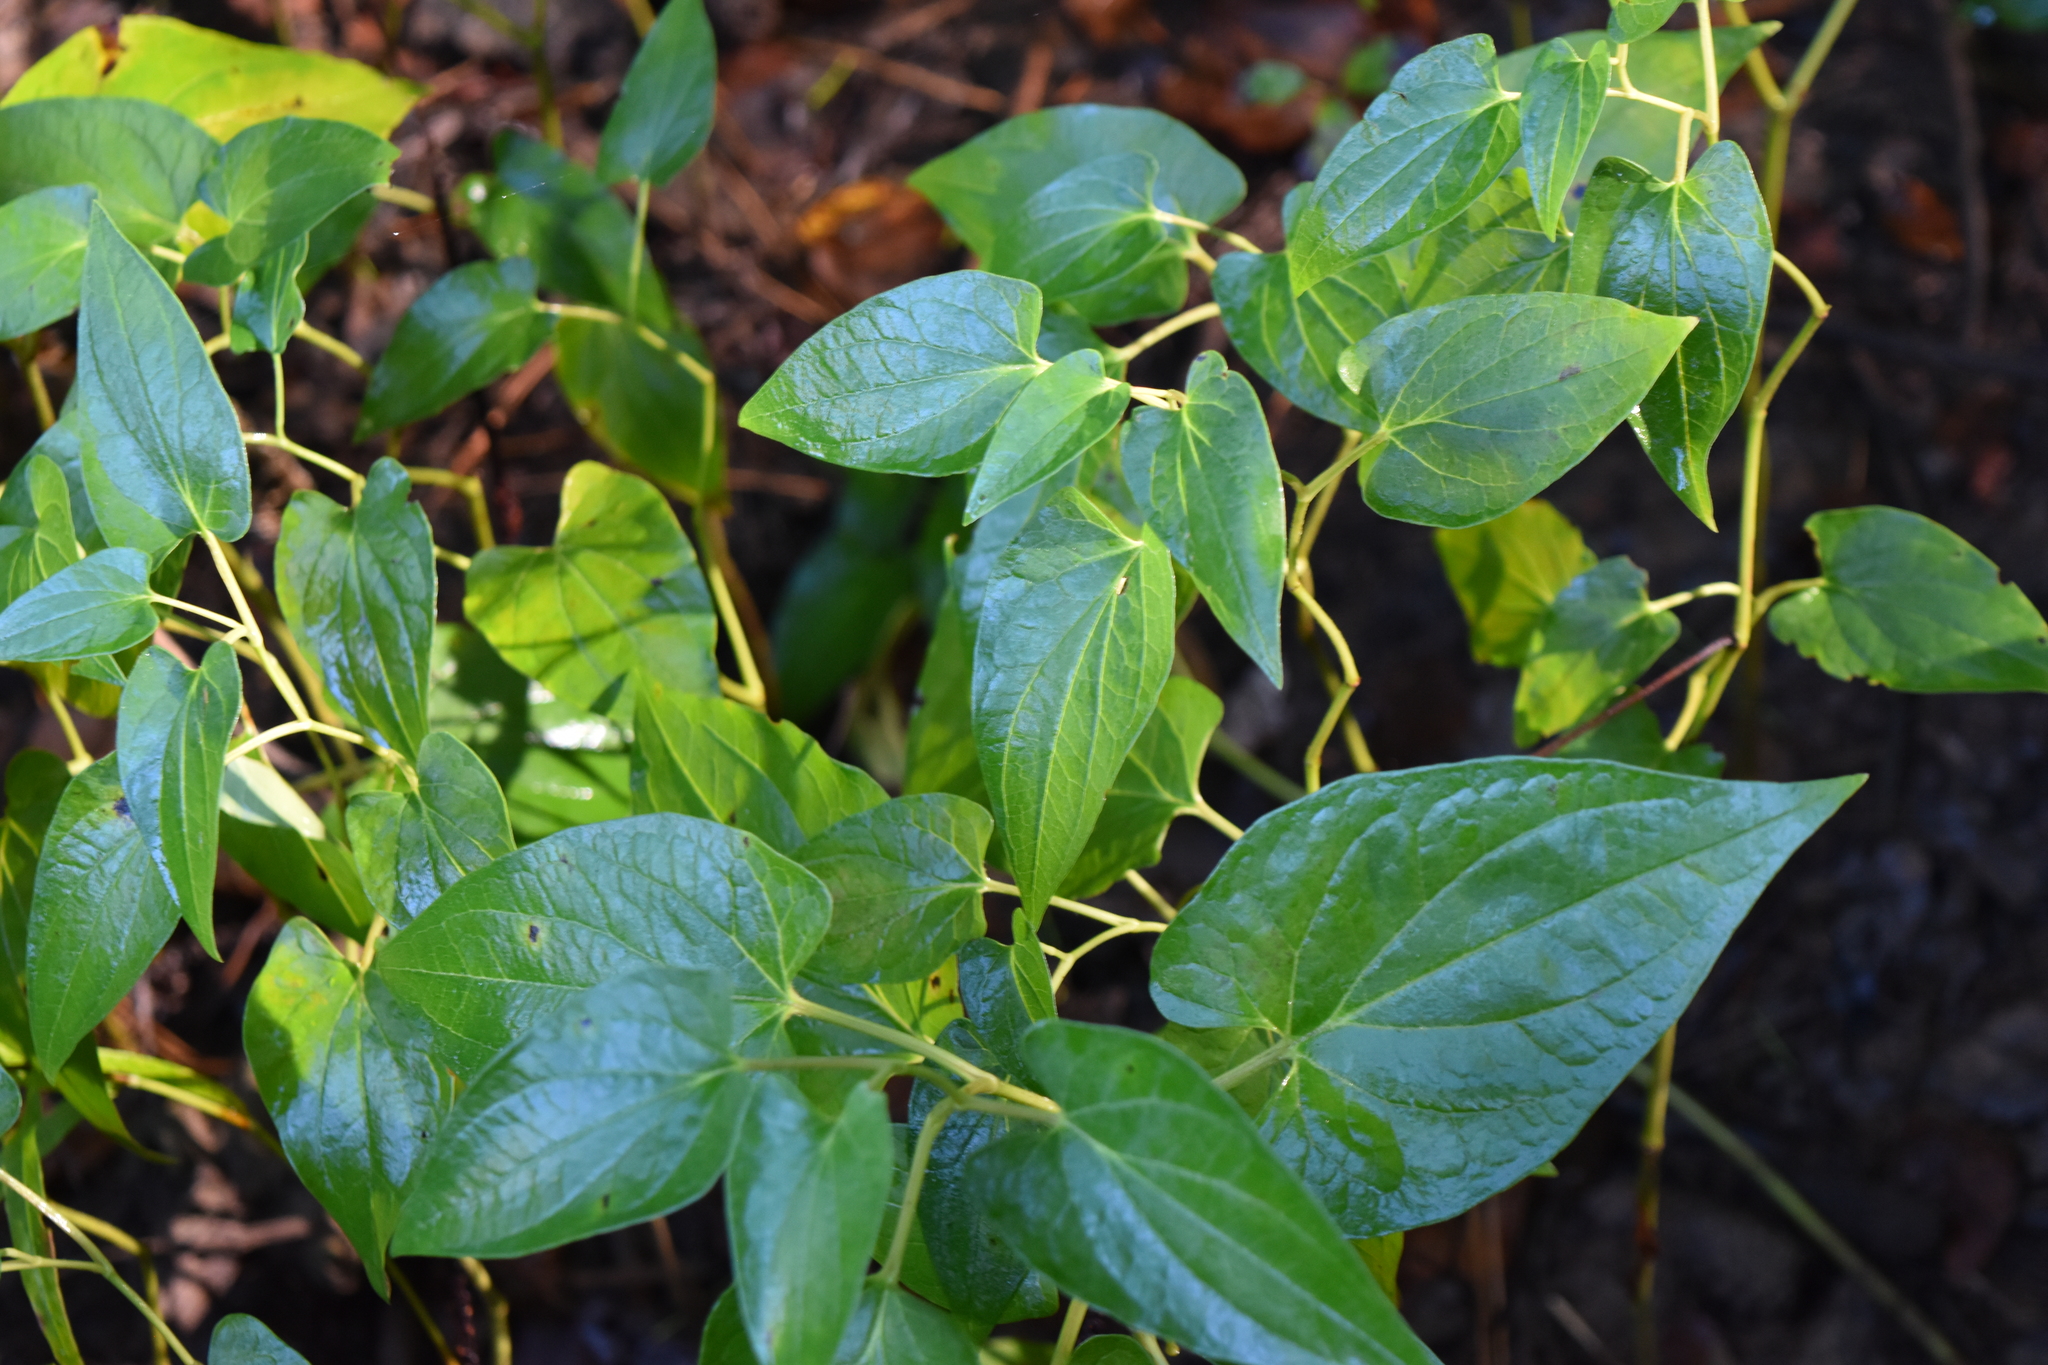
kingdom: Plantae
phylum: Tracheophyta
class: Magnoliopsida
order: Piperales
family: Saururaceae
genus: Saururus
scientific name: Saururus cernuus
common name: Lizard's-tail
